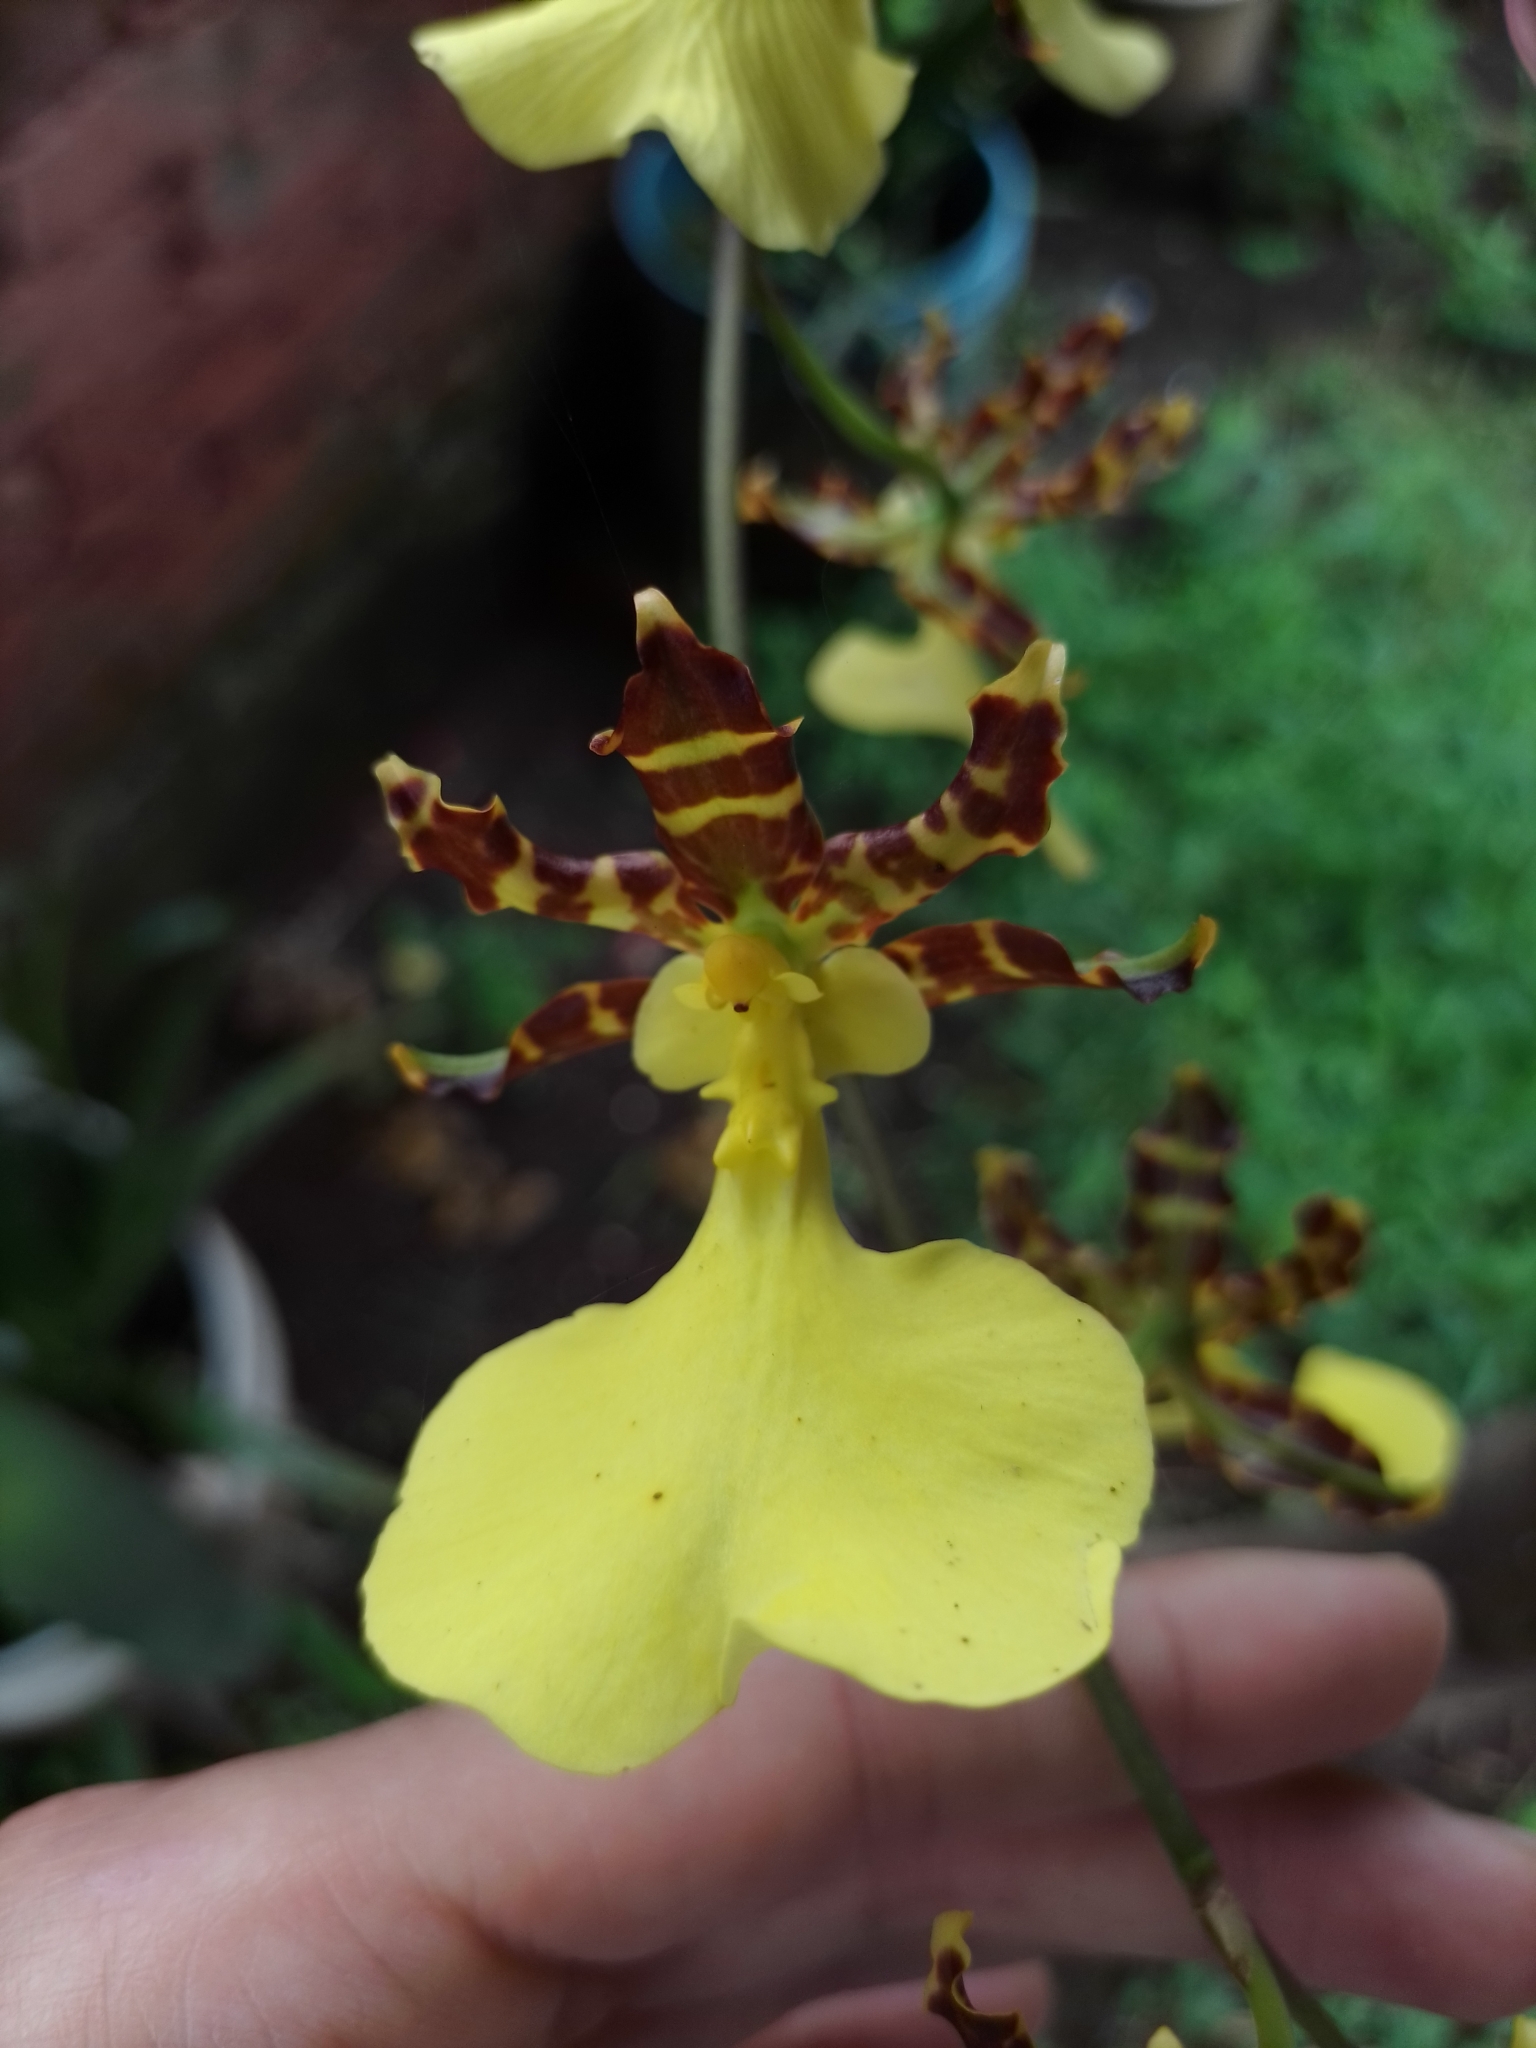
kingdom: Plantae
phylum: Tracheophyta
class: Liliopsida
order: Asparagales
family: Orchidaceae
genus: Oncidium
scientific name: Oncidium tigrinum
